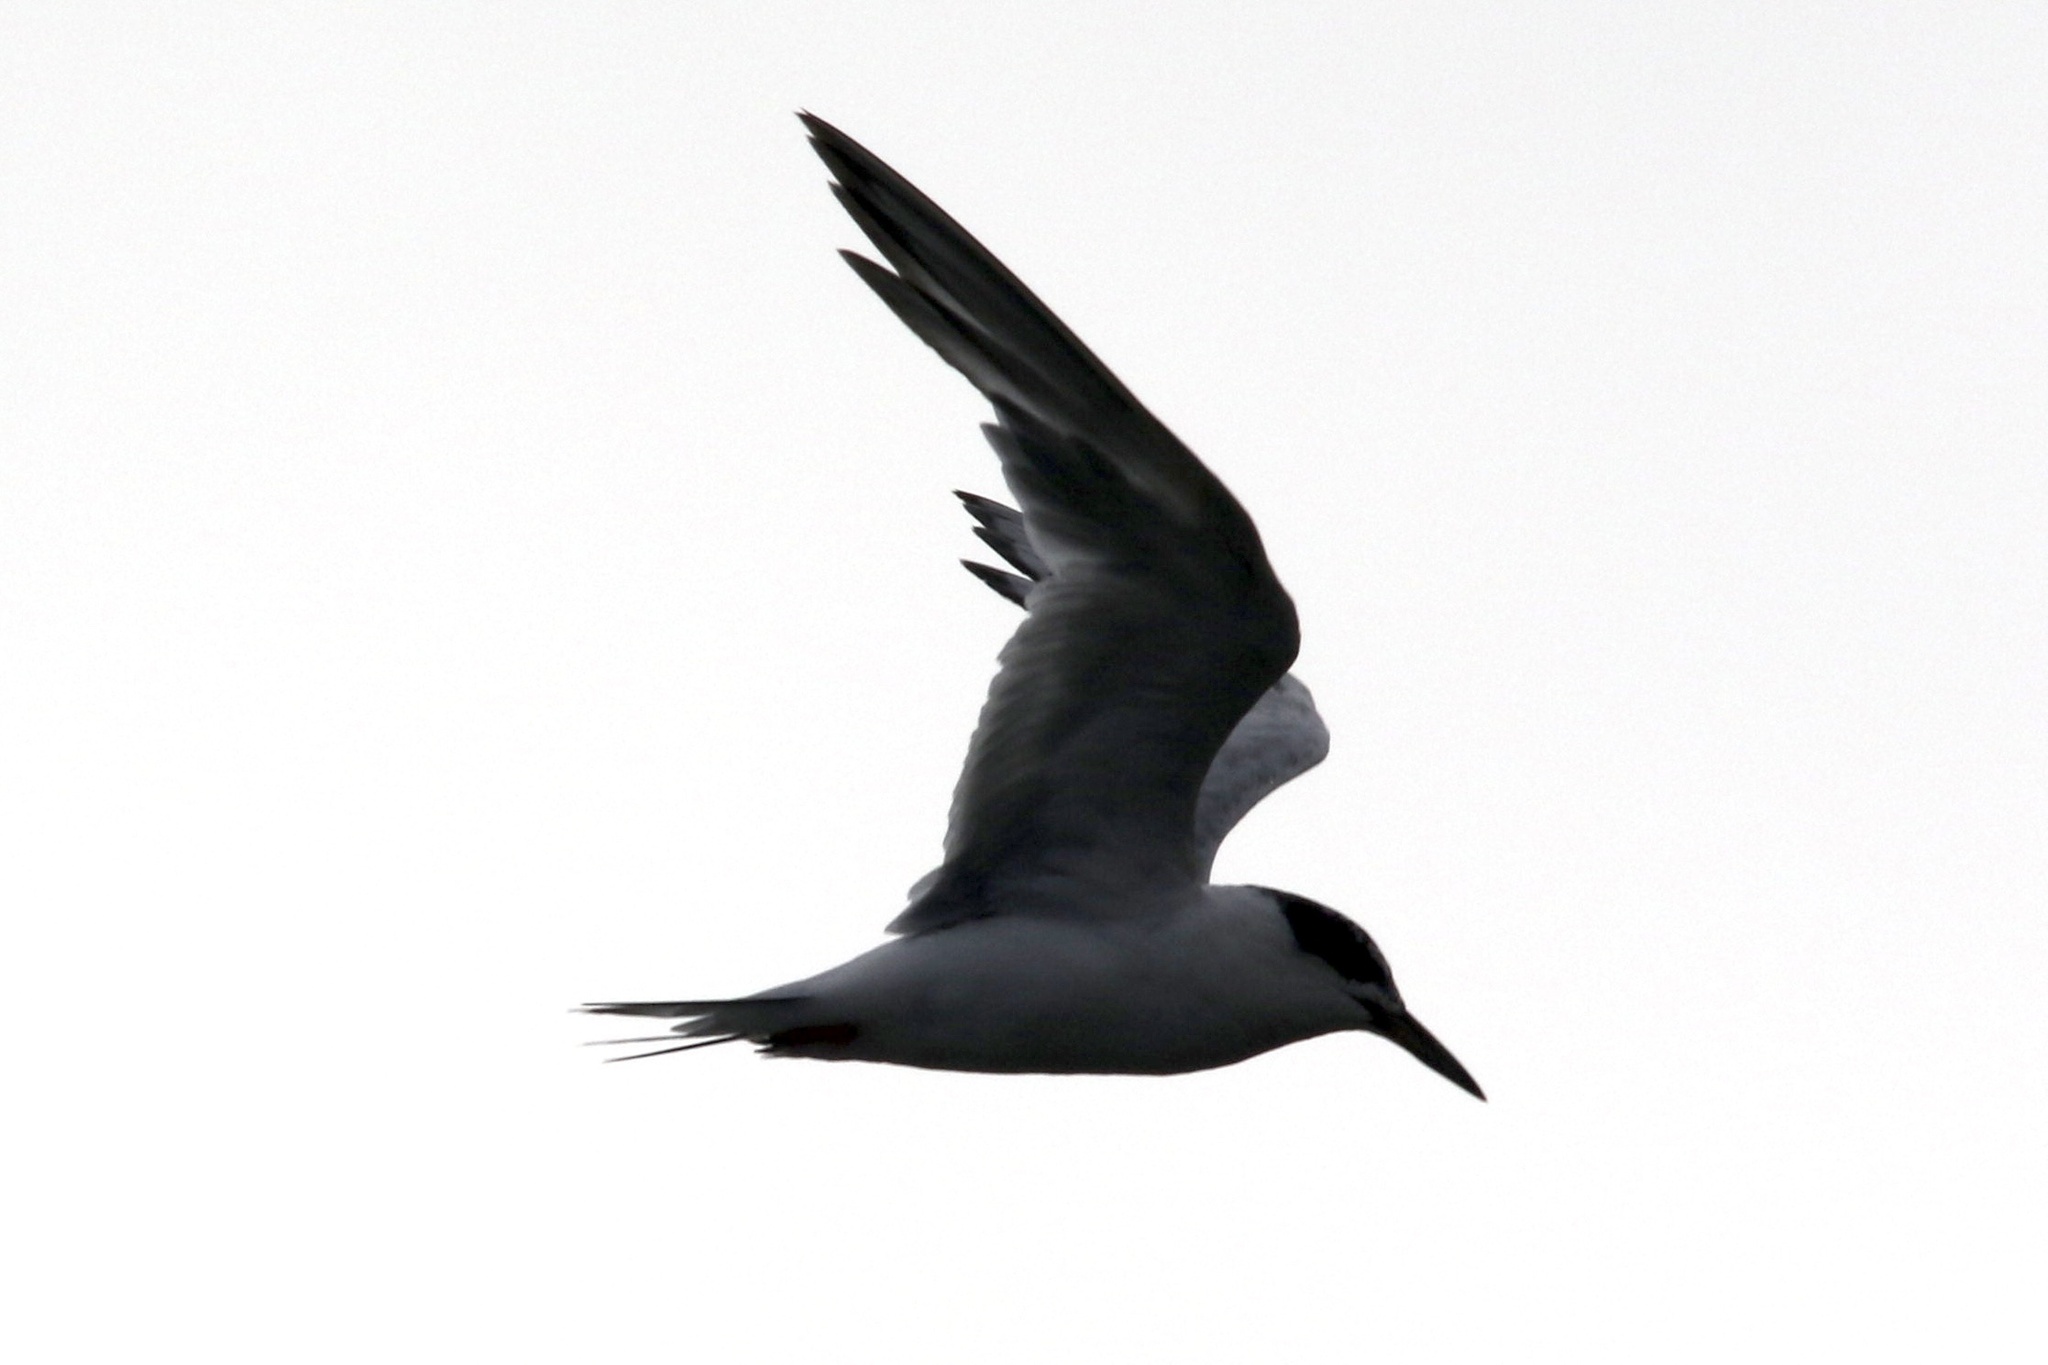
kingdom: Animalia
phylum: Chordata
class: Aves
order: Charadriiformes
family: Laridae
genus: Sterna
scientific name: Sterna forsteri
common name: Forster's tern
